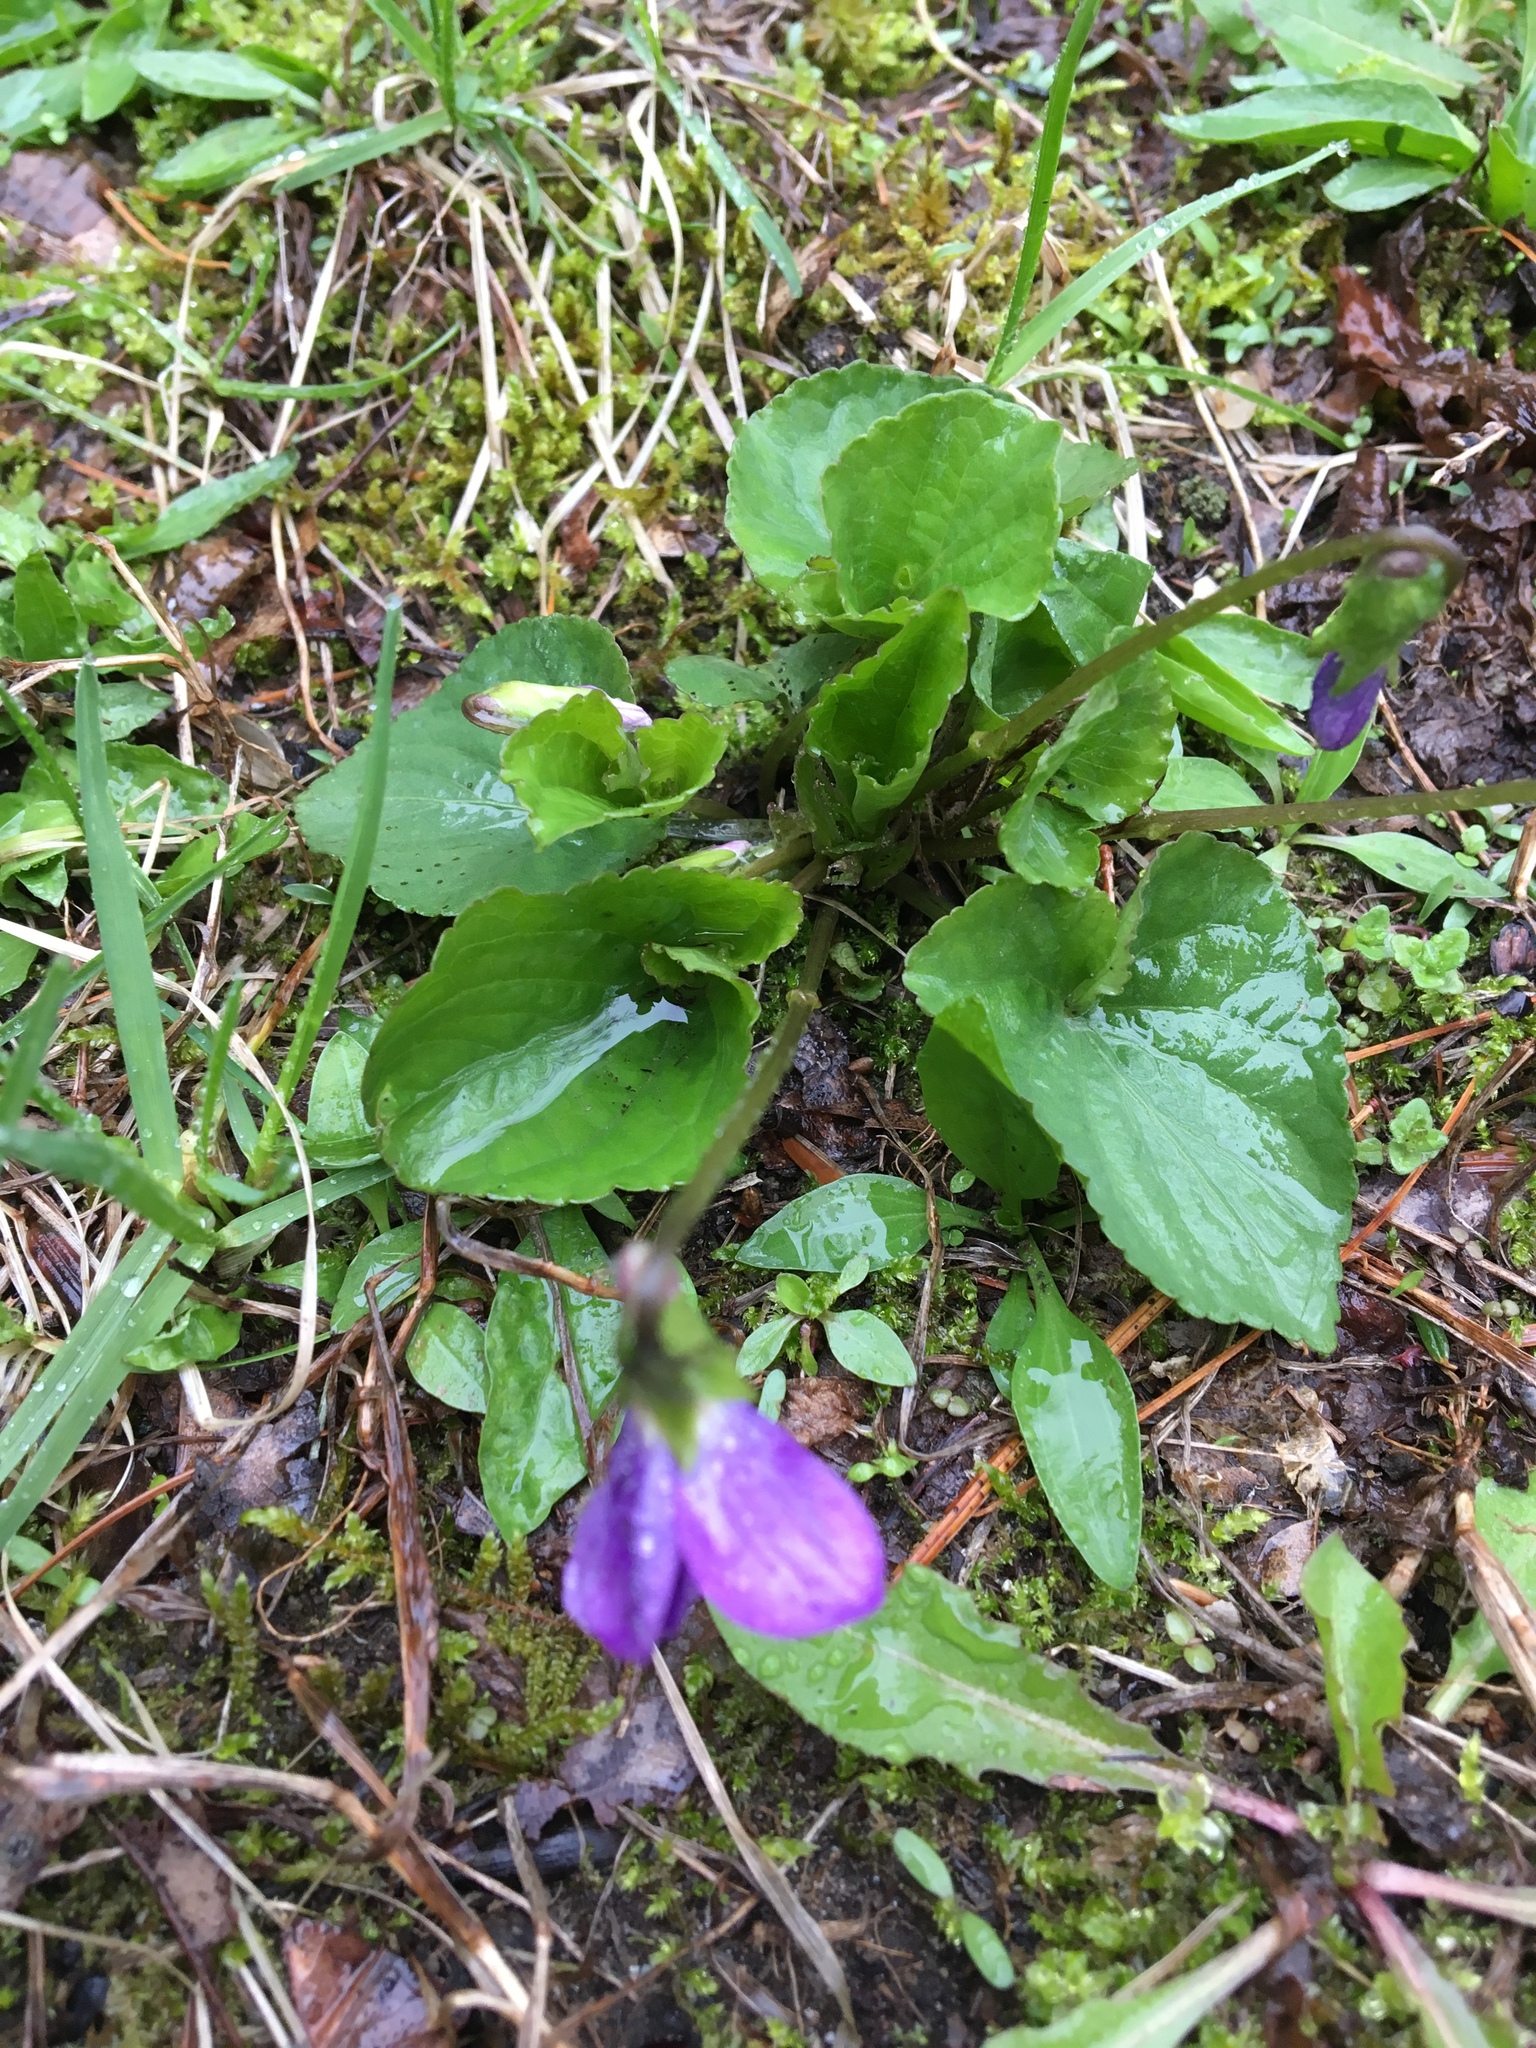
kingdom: Plantae
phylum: Tracheophyta
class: Magnoliopsida
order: Malpighiales
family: Violaceae
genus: Viola
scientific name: Viola sororia
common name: Dooryard violet
